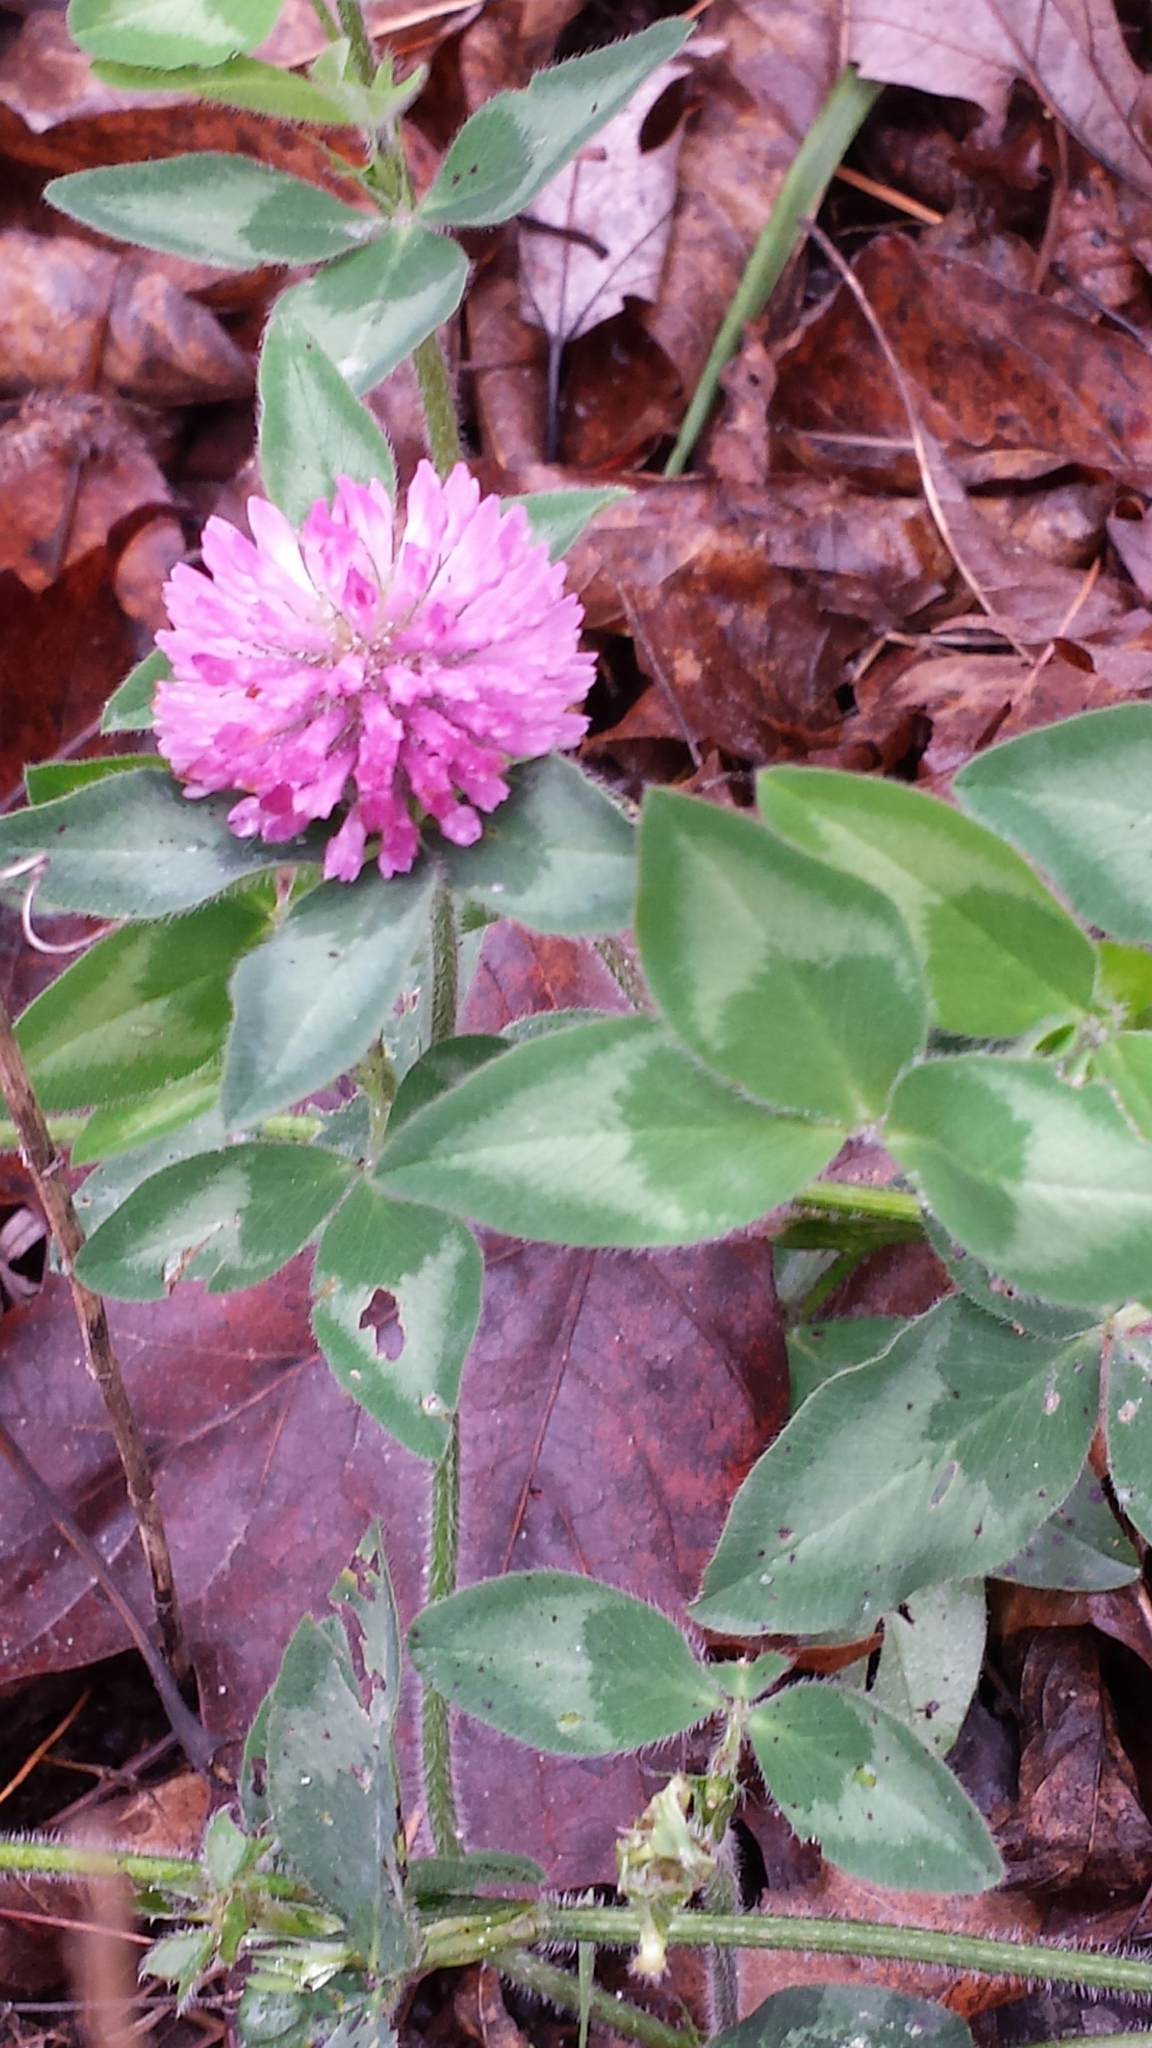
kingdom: Plantae
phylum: Tracheophyta
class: Magnoliopsida
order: Fabales
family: Fabaceae
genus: Trifolium
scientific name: Trifolium pratense
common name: Red clover
